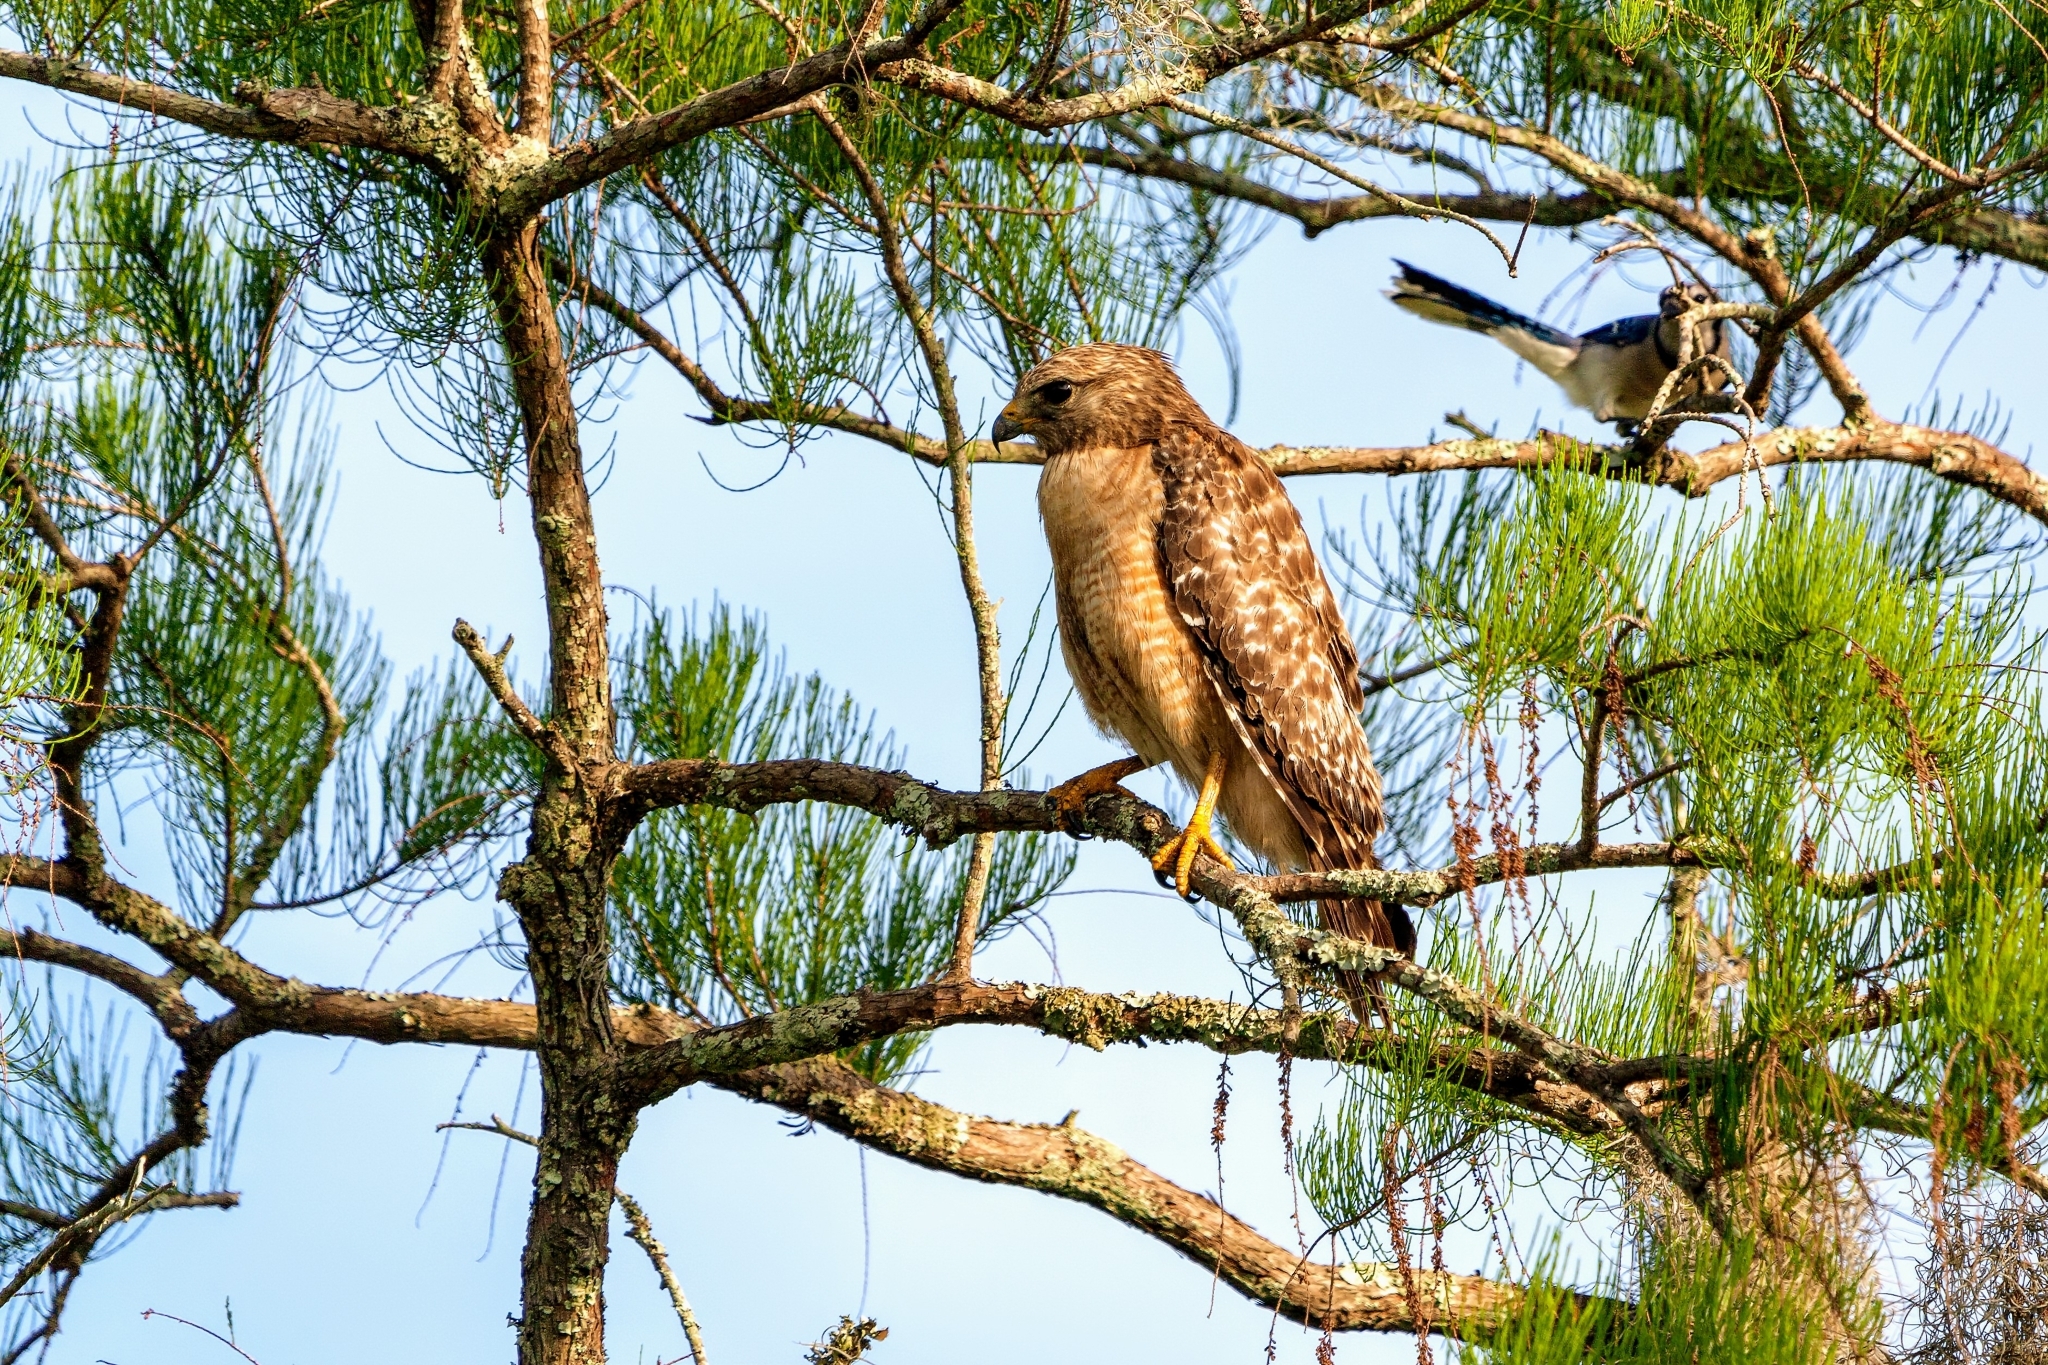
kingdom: Animalia
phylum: Chordata
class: Aves
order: Accipitriformes
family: Accipitridae
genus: Buteo
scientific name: Buteo lineatus
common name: Red-shouldered hawk
